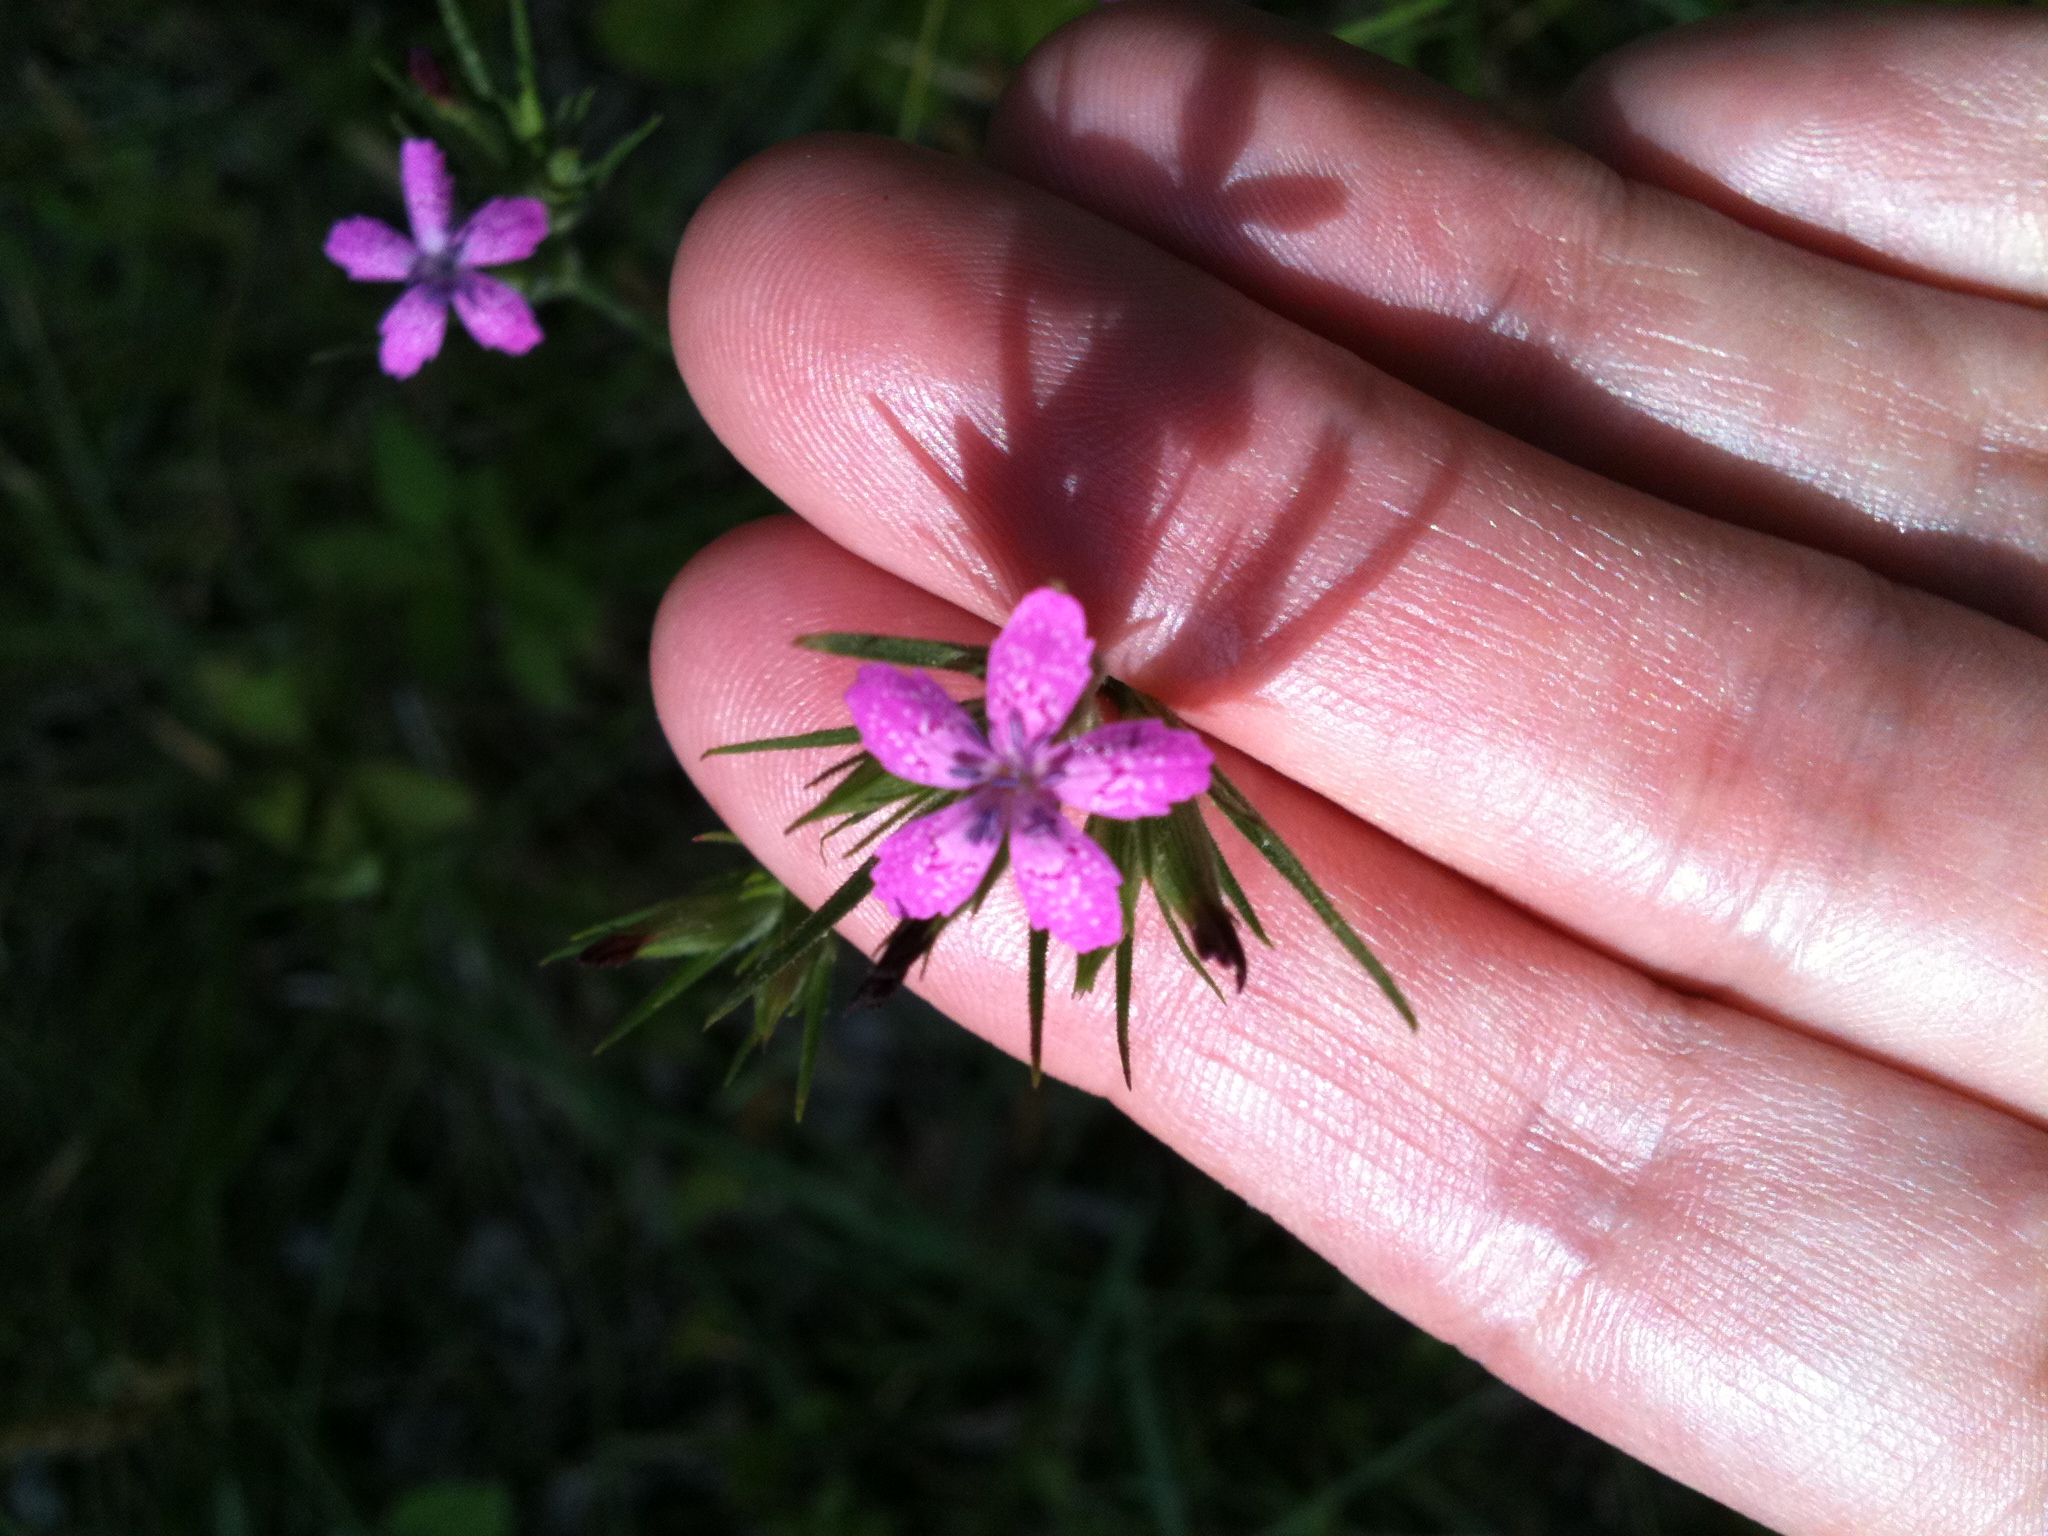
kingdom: Plantae
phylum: Tracheophyta
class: Magnoliopsida
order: Caryophyllales
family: Caryophyllaceae
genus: Dianthus
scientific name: Dianthus armeria
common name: Deptford pink
